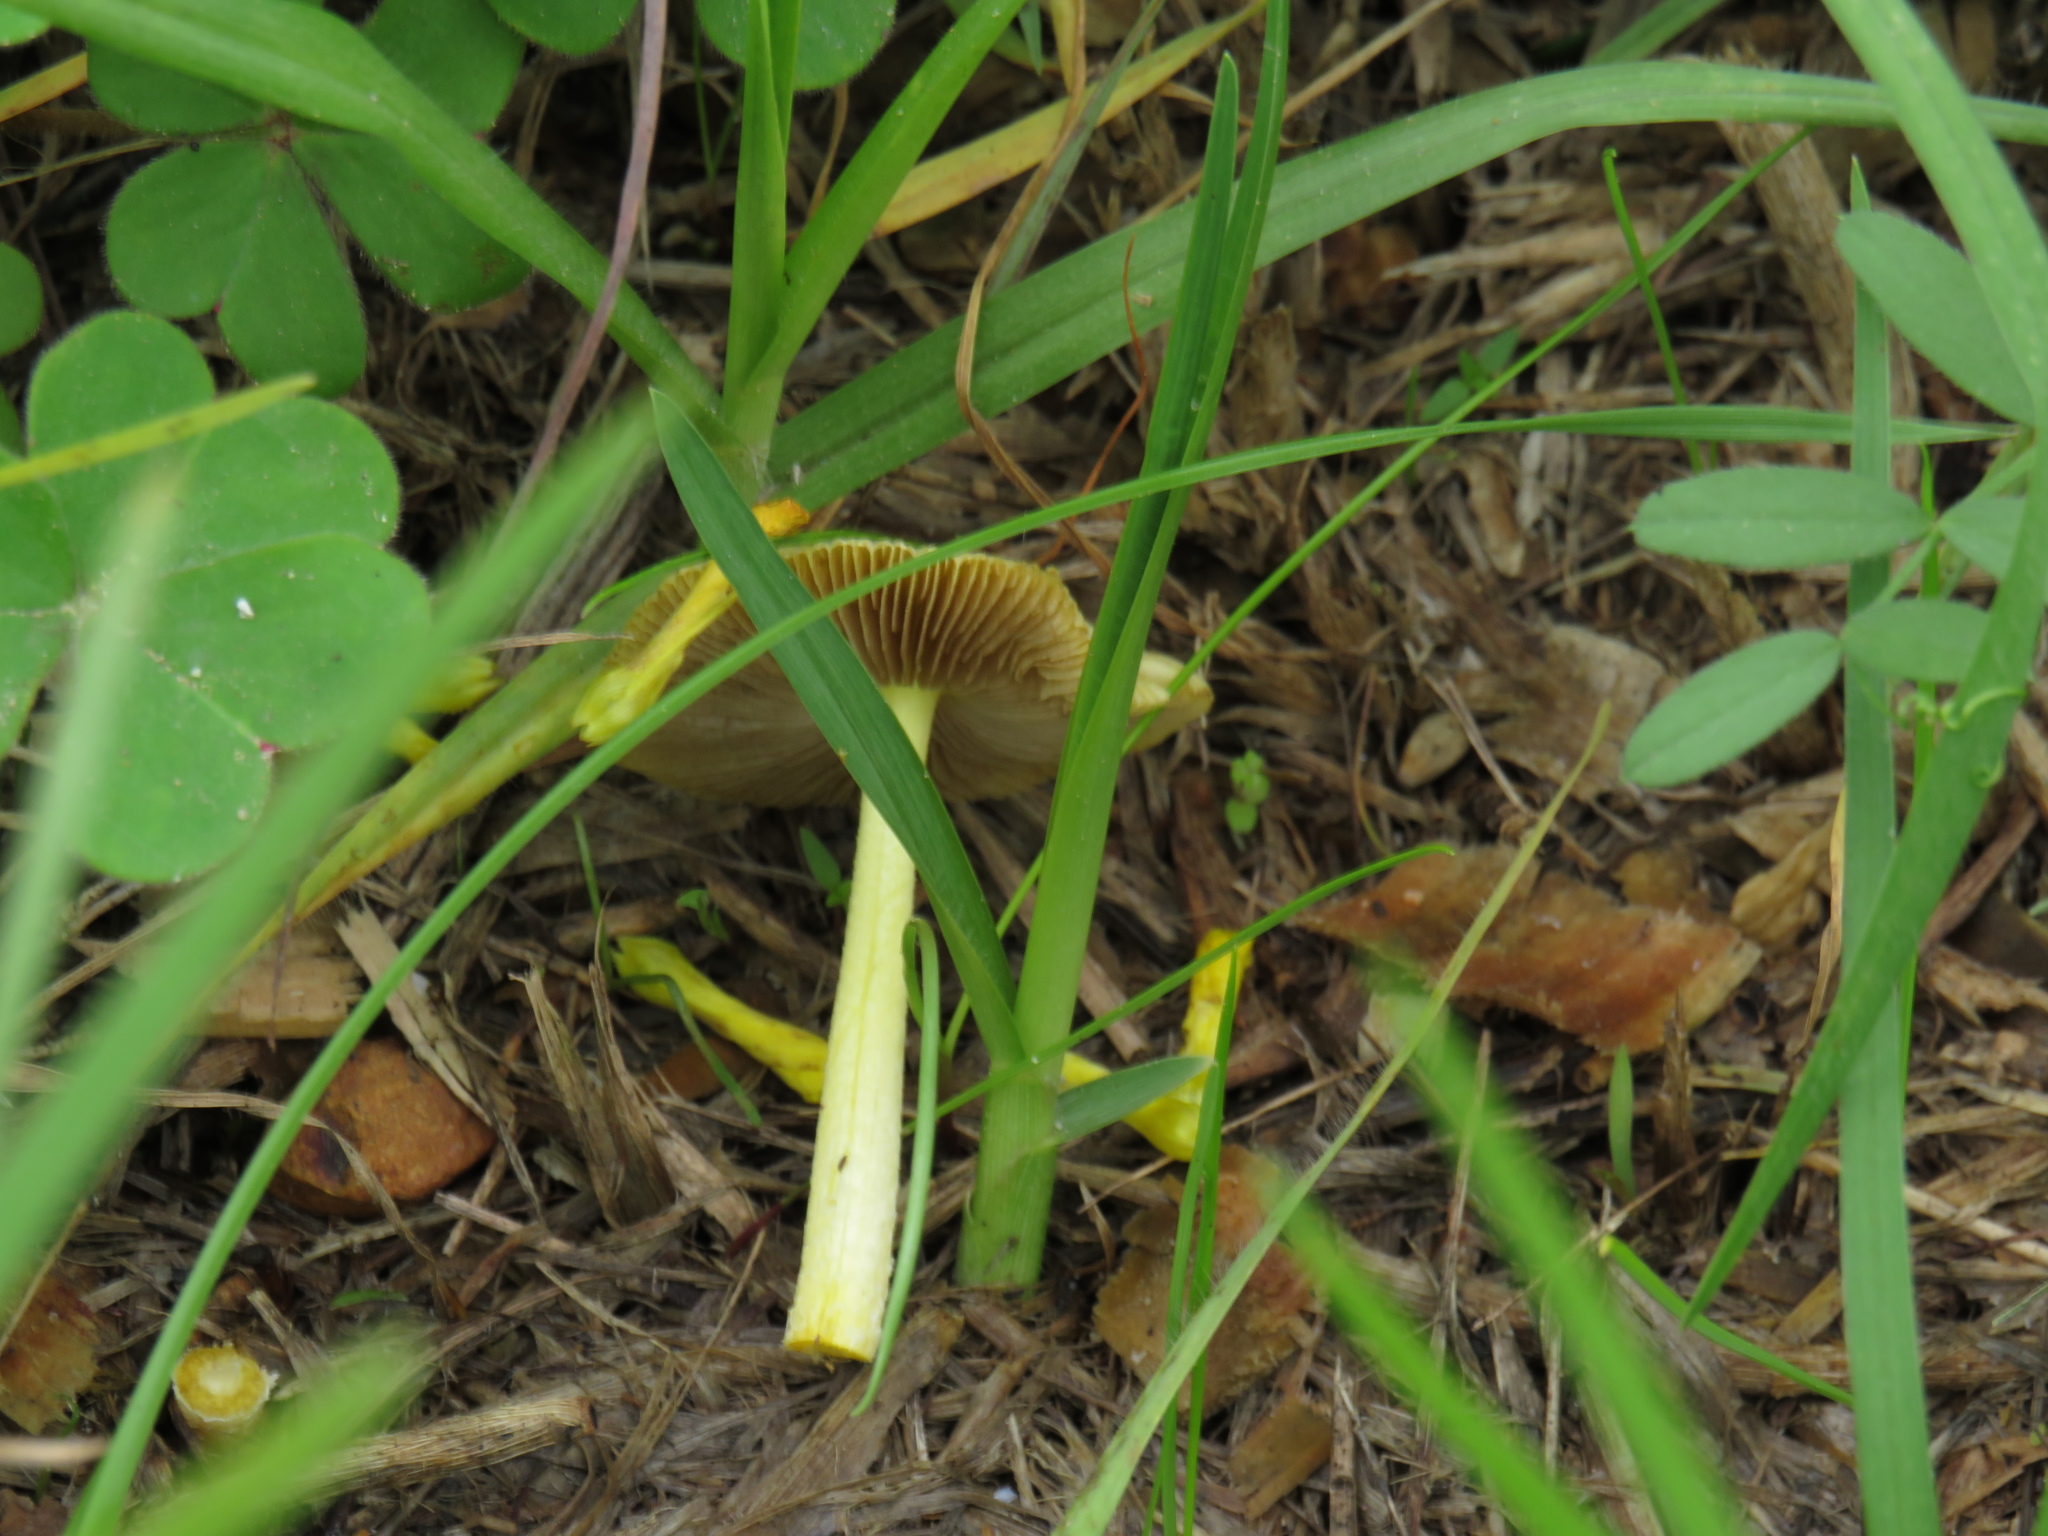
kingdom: Fungi
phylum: Basidiomycota
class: Agaricomycetes
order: Agaricales
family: Bolbitiaceae
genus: Bolbitius
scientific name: Bolbitius titubans
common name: Yellow fieldcap
